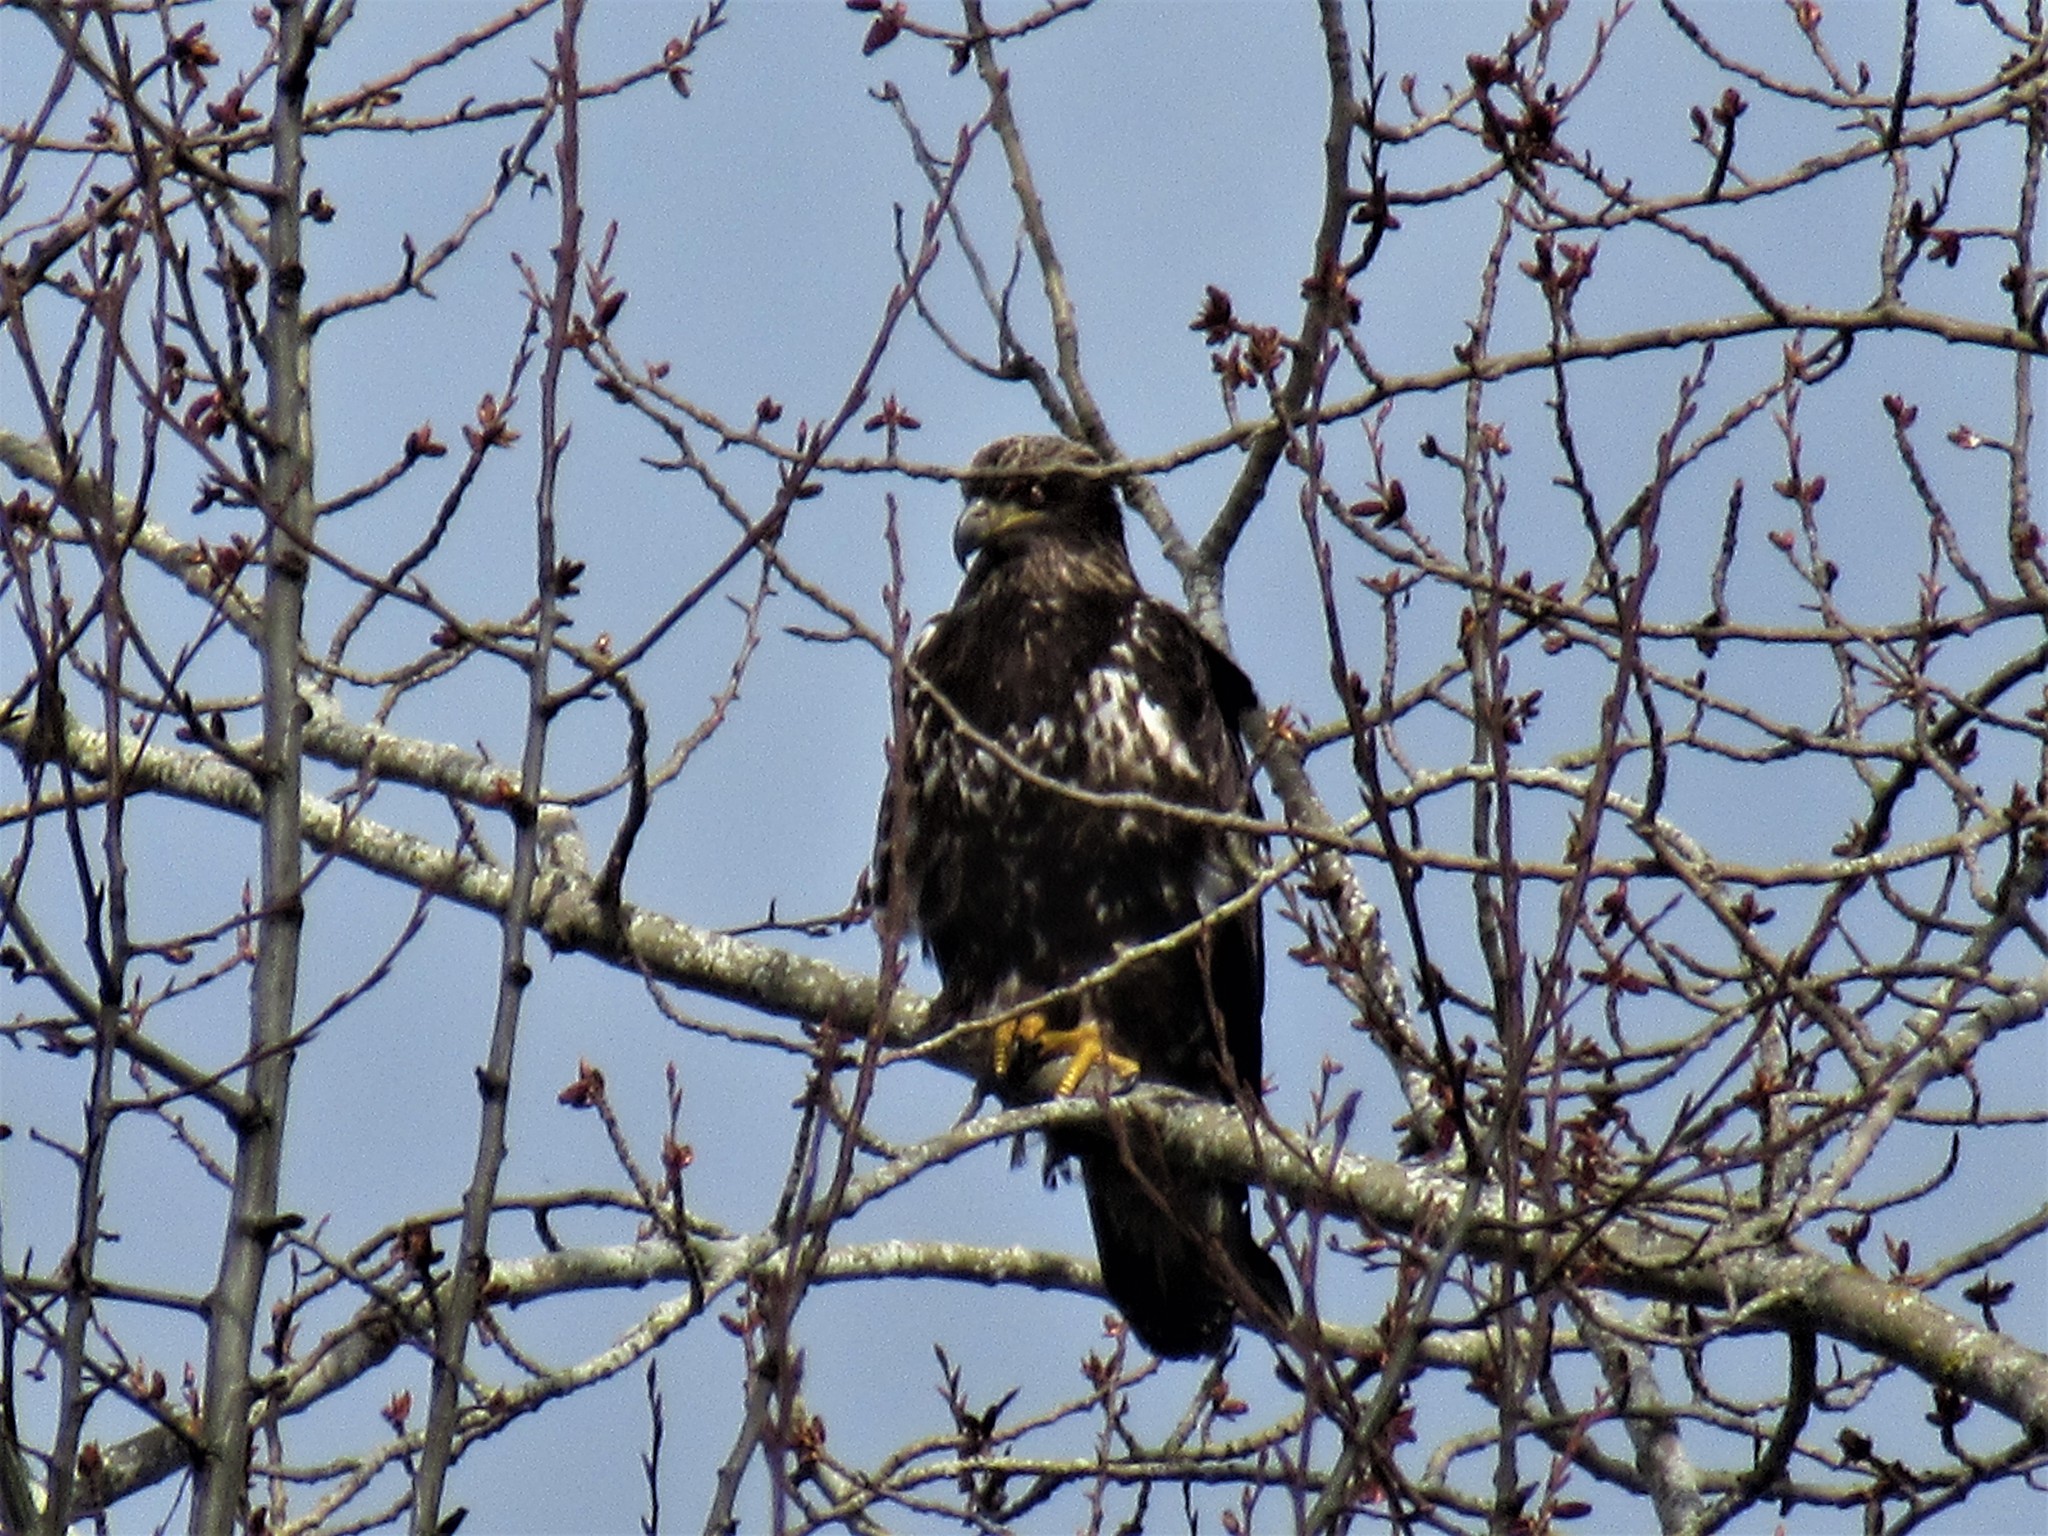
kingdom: Animalia
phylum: Chordata
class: Aves
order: Accipitriformes
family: Accipitridae
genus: Haliaeetus
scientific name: Haliaeetus leucocephalus
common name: Bald eagle
